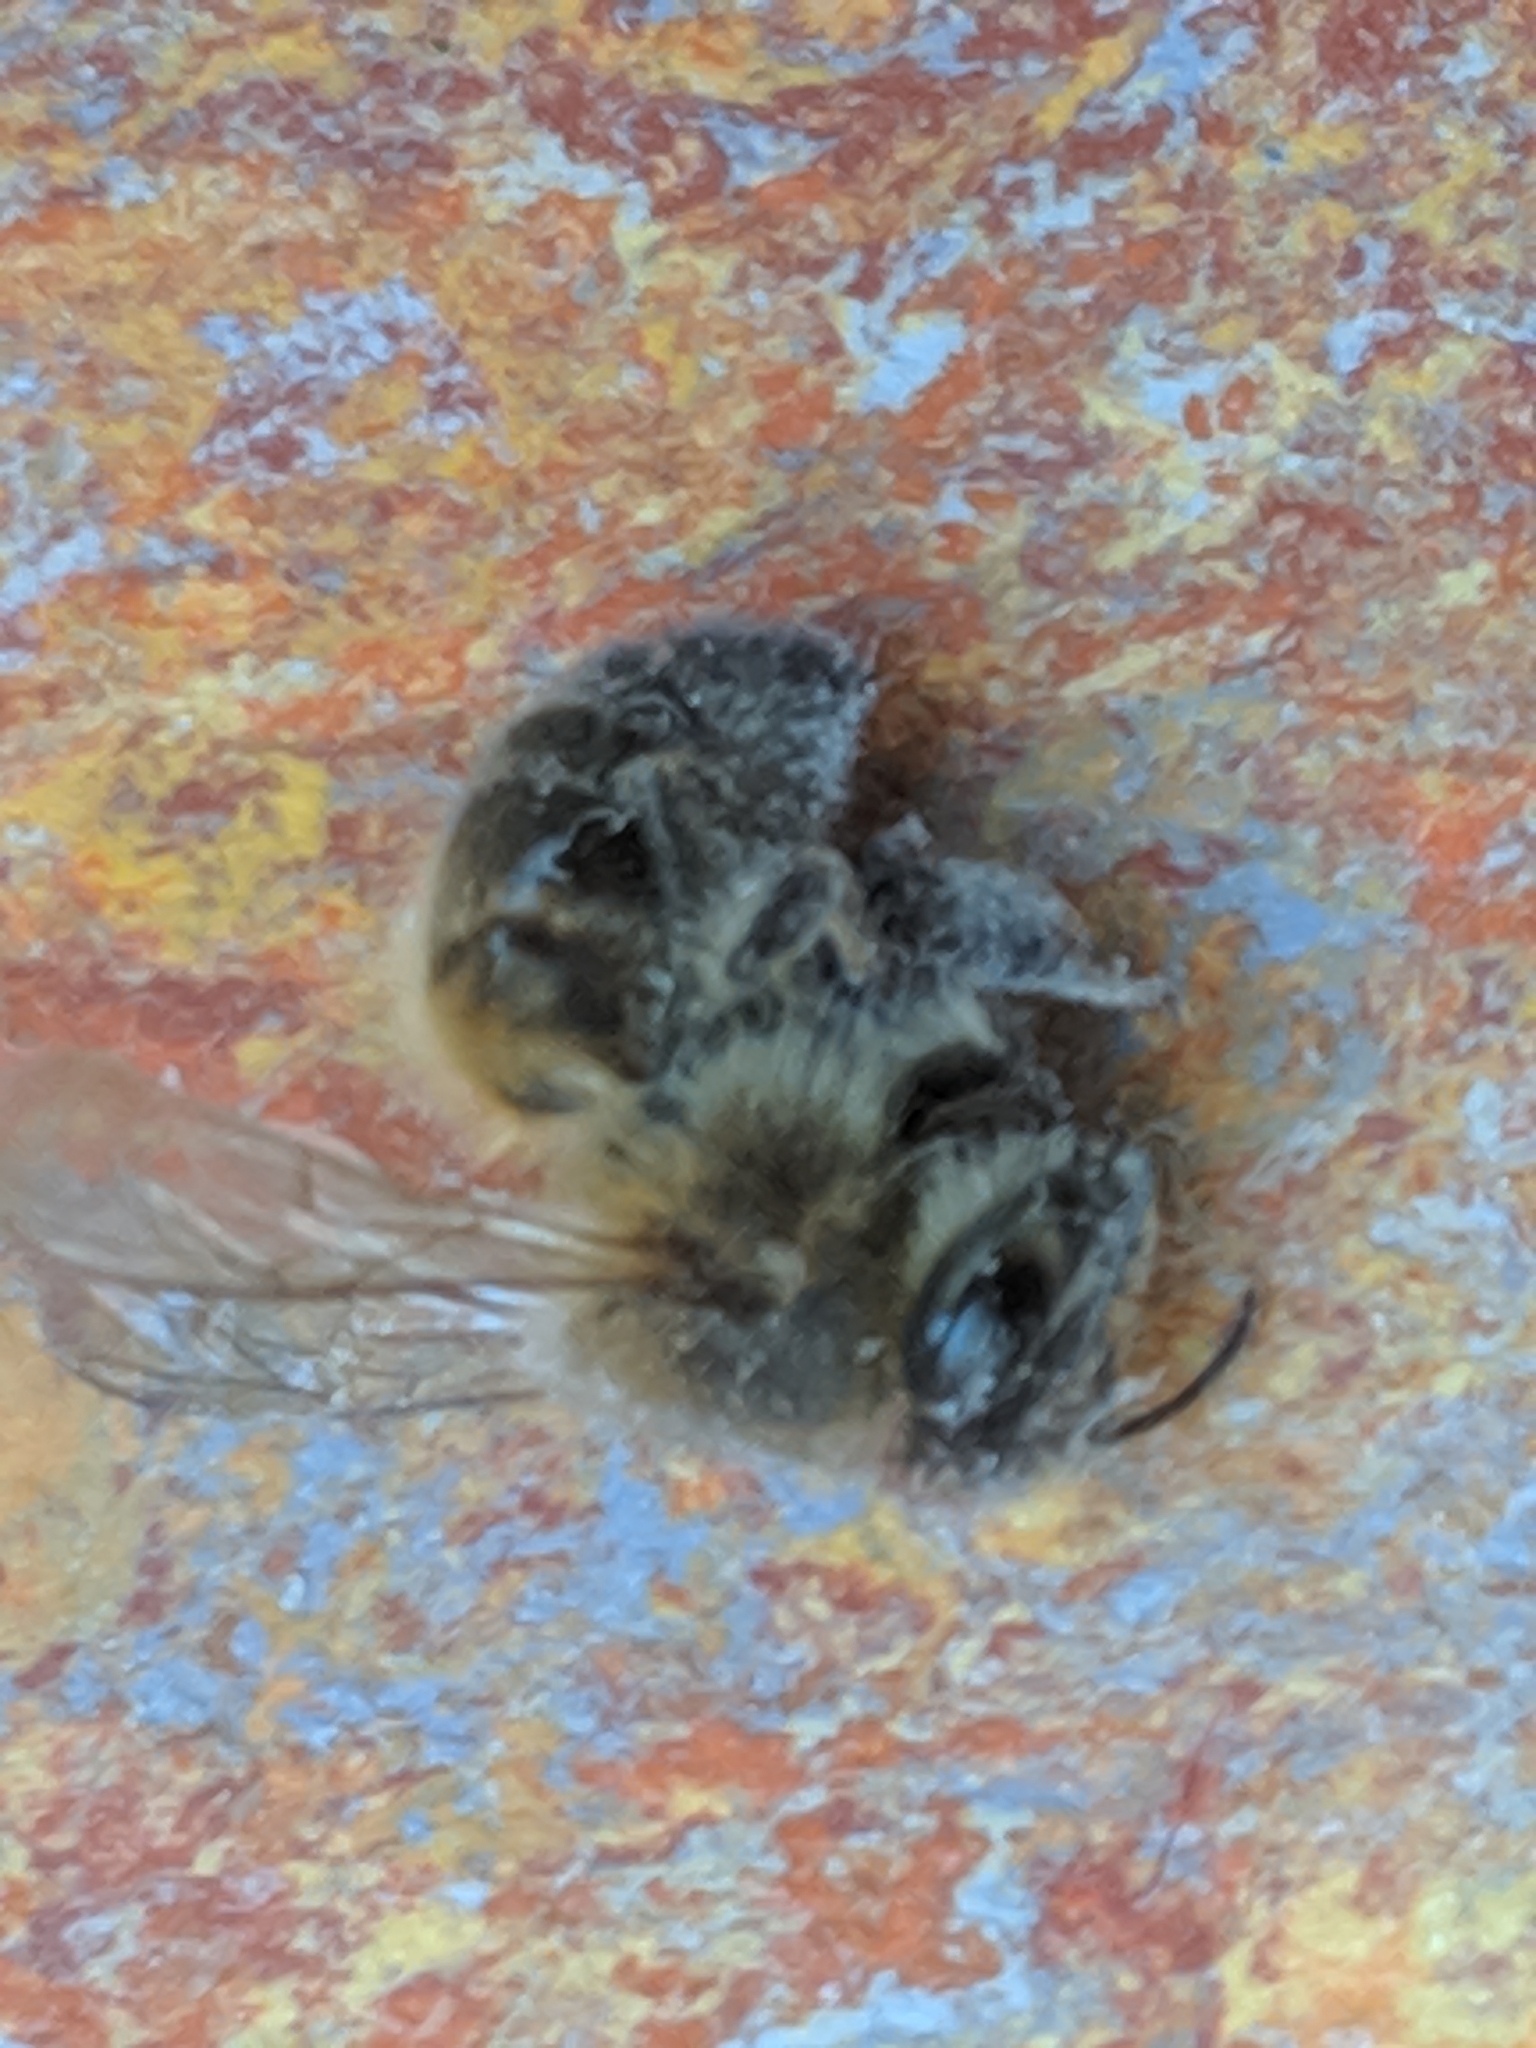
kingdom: Animalia
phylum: Arthropoda
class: Insecta
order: Hymenoptera
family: Apidae
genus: Apis
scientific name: Apis mellifera
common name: Honey bee
